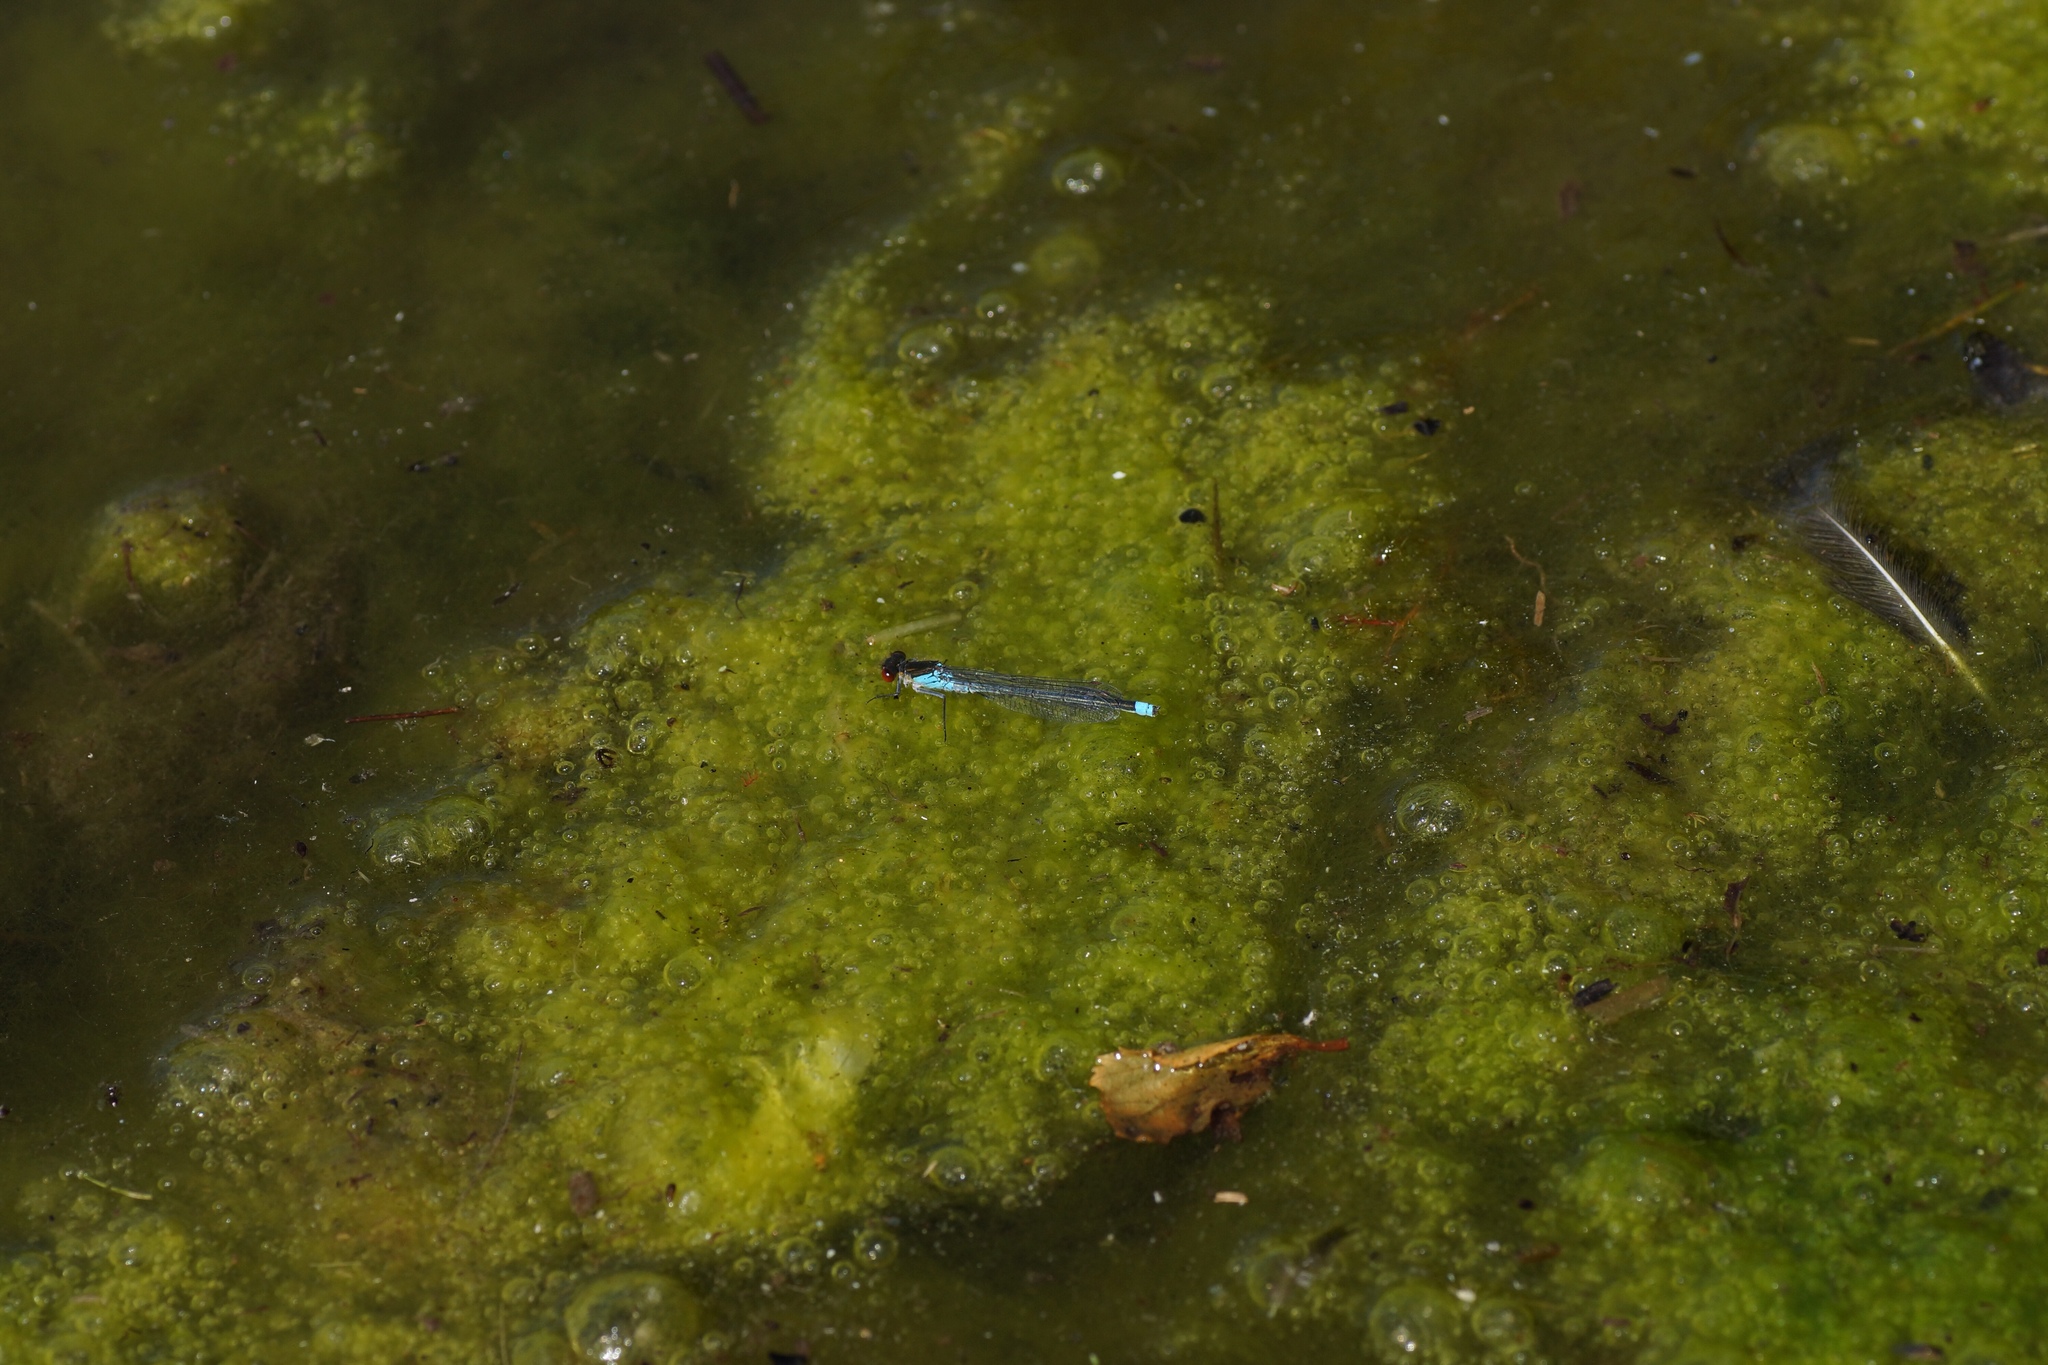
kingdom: Animalia
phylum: Arthropoda
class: Insecta
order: Odonata
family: Coenagrionidae
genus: Erythromma
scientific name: Erythromma najas
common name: Red-eyed damselfly
